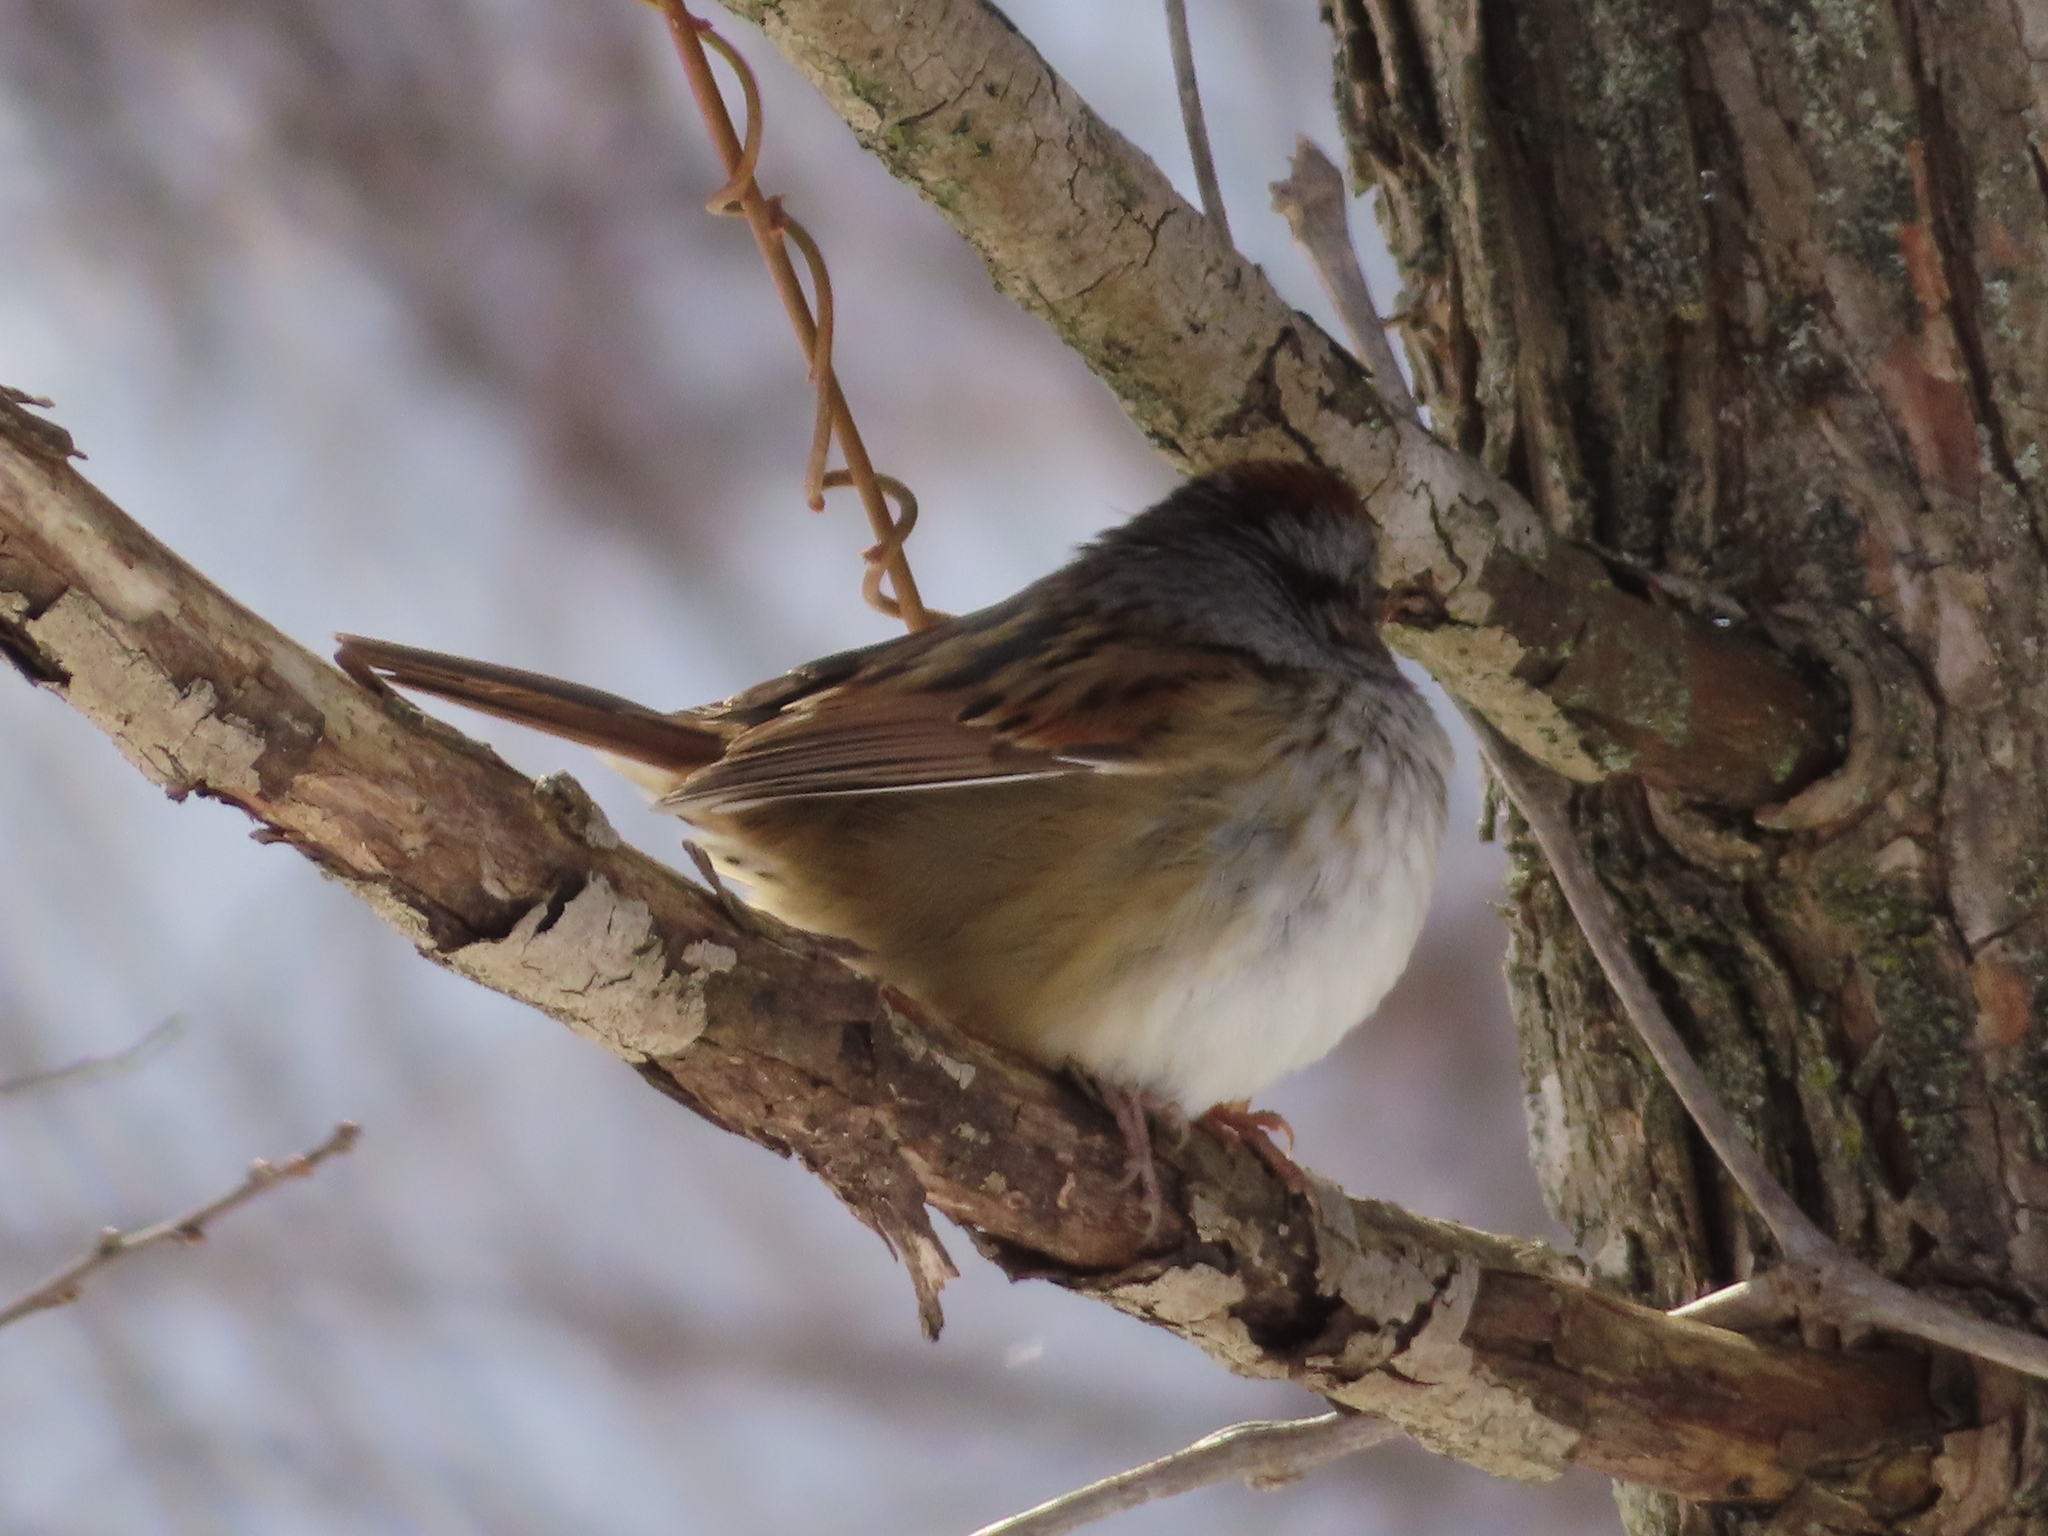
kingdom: Animalia
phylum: Chordata
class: Aves
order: Passeriformes
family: Passerellidae
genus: Melospiza
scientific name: Melospiza georgiana
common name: Swamp sparrow
